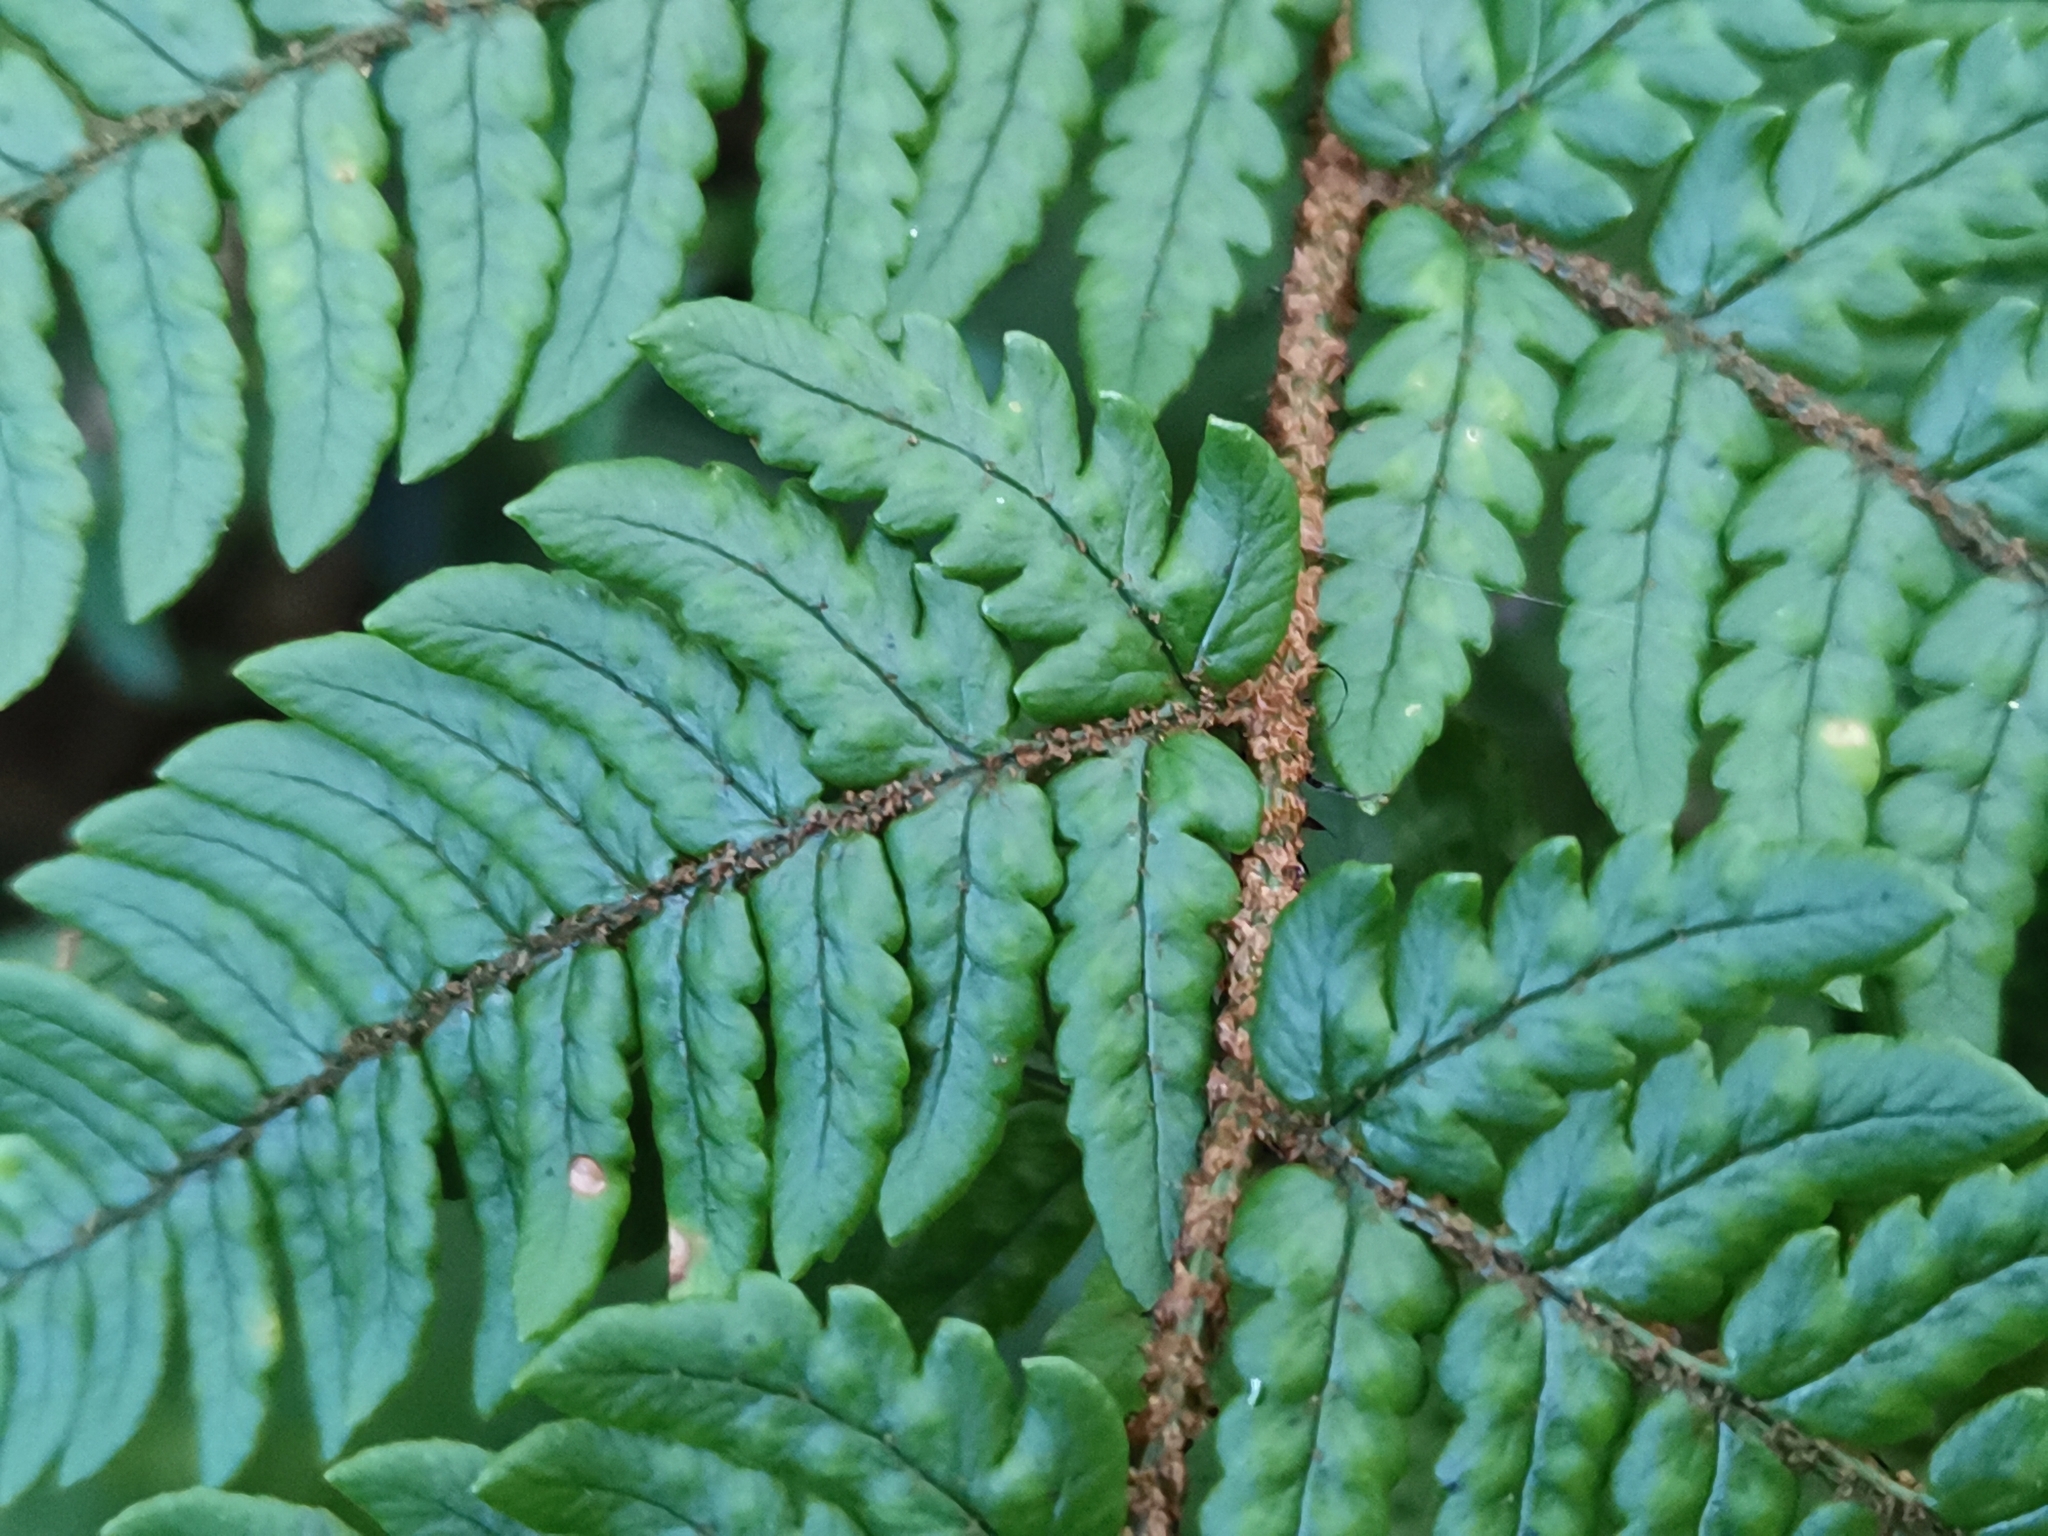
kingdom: Plantae
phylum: Tracheophyta
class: Polypodiopsida
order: Polypodiales
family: Dryopteridaceae
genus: Dryopteris
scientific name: Dryopteris bissetiana
